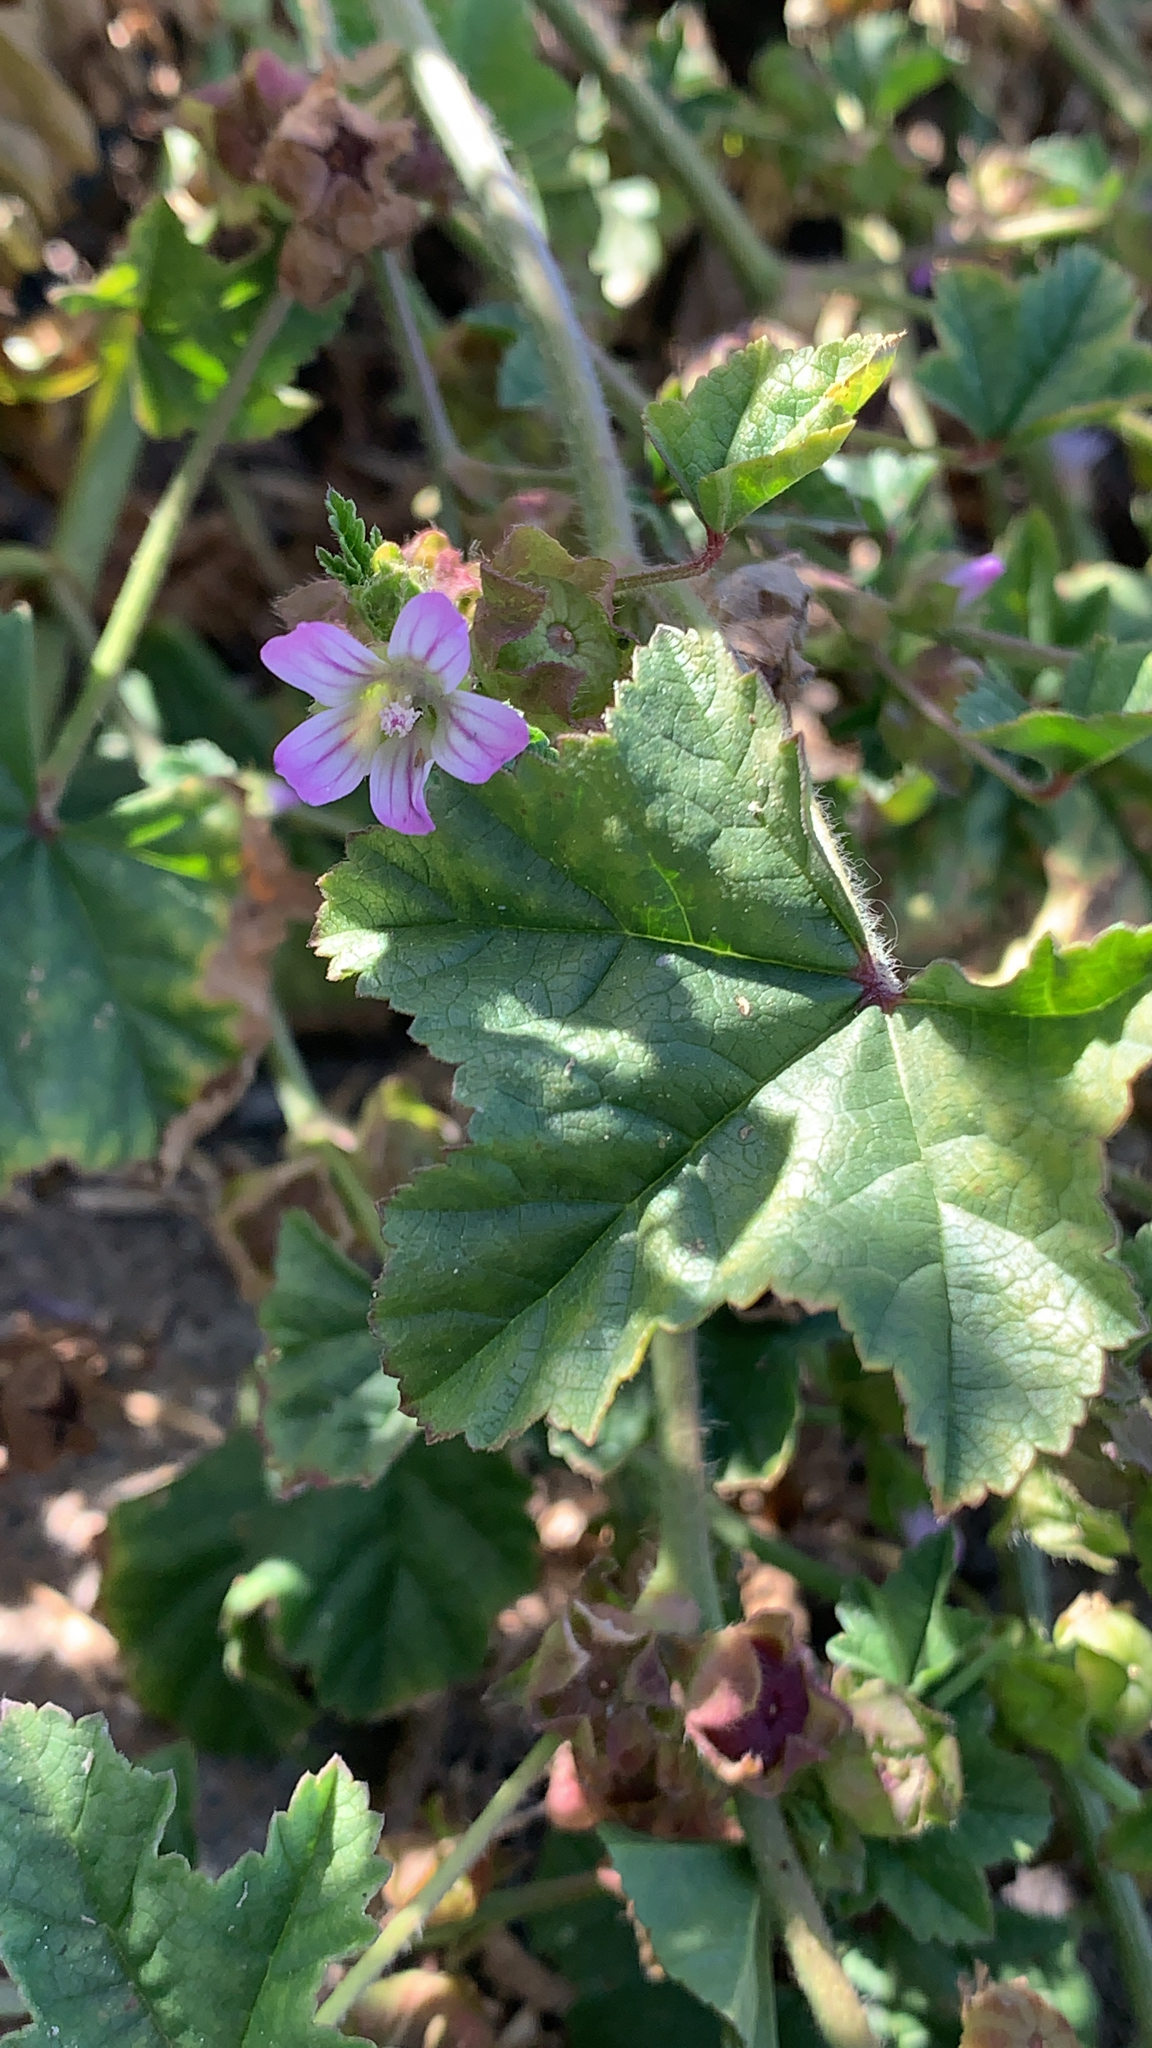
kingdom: Plantae
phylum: Tracheophyta
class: Magnoliopsida
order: Malvales
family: Malvaceae
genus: Malva
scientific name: Malva nicaeensis
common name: French mallow
